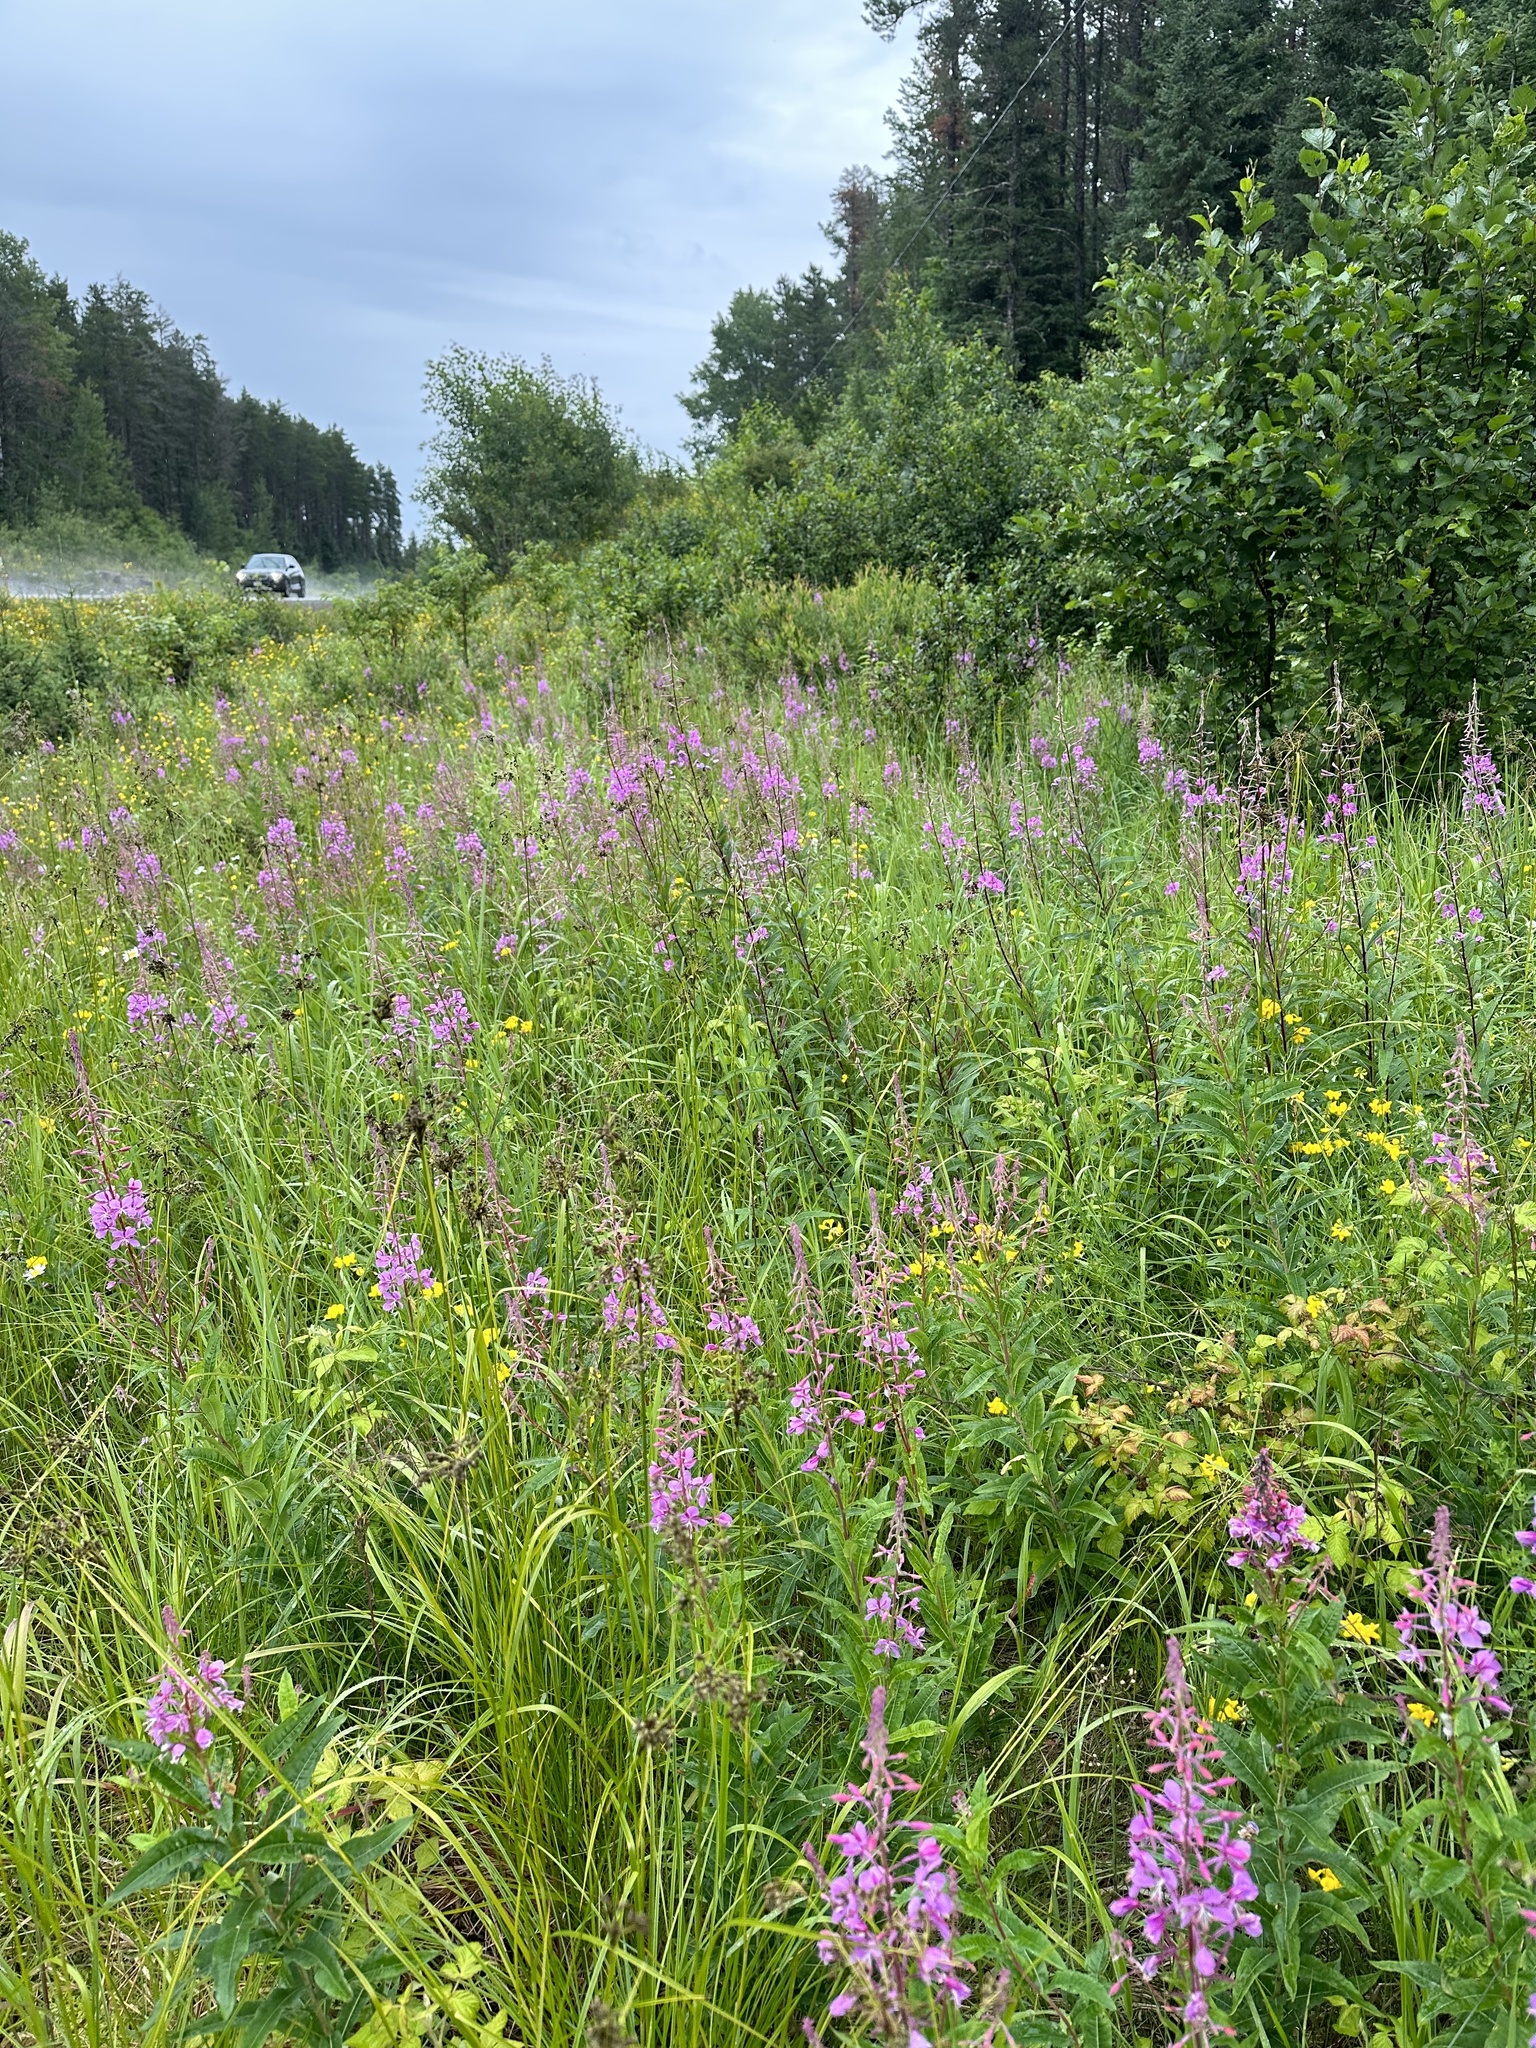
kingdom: Plantae
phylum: Tracheophyta
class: Magnoliopsida
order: Myrtales
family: Onagraceae
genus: Chamaenerion
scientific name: Chamaenerion angustifolium
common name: Fireweed
